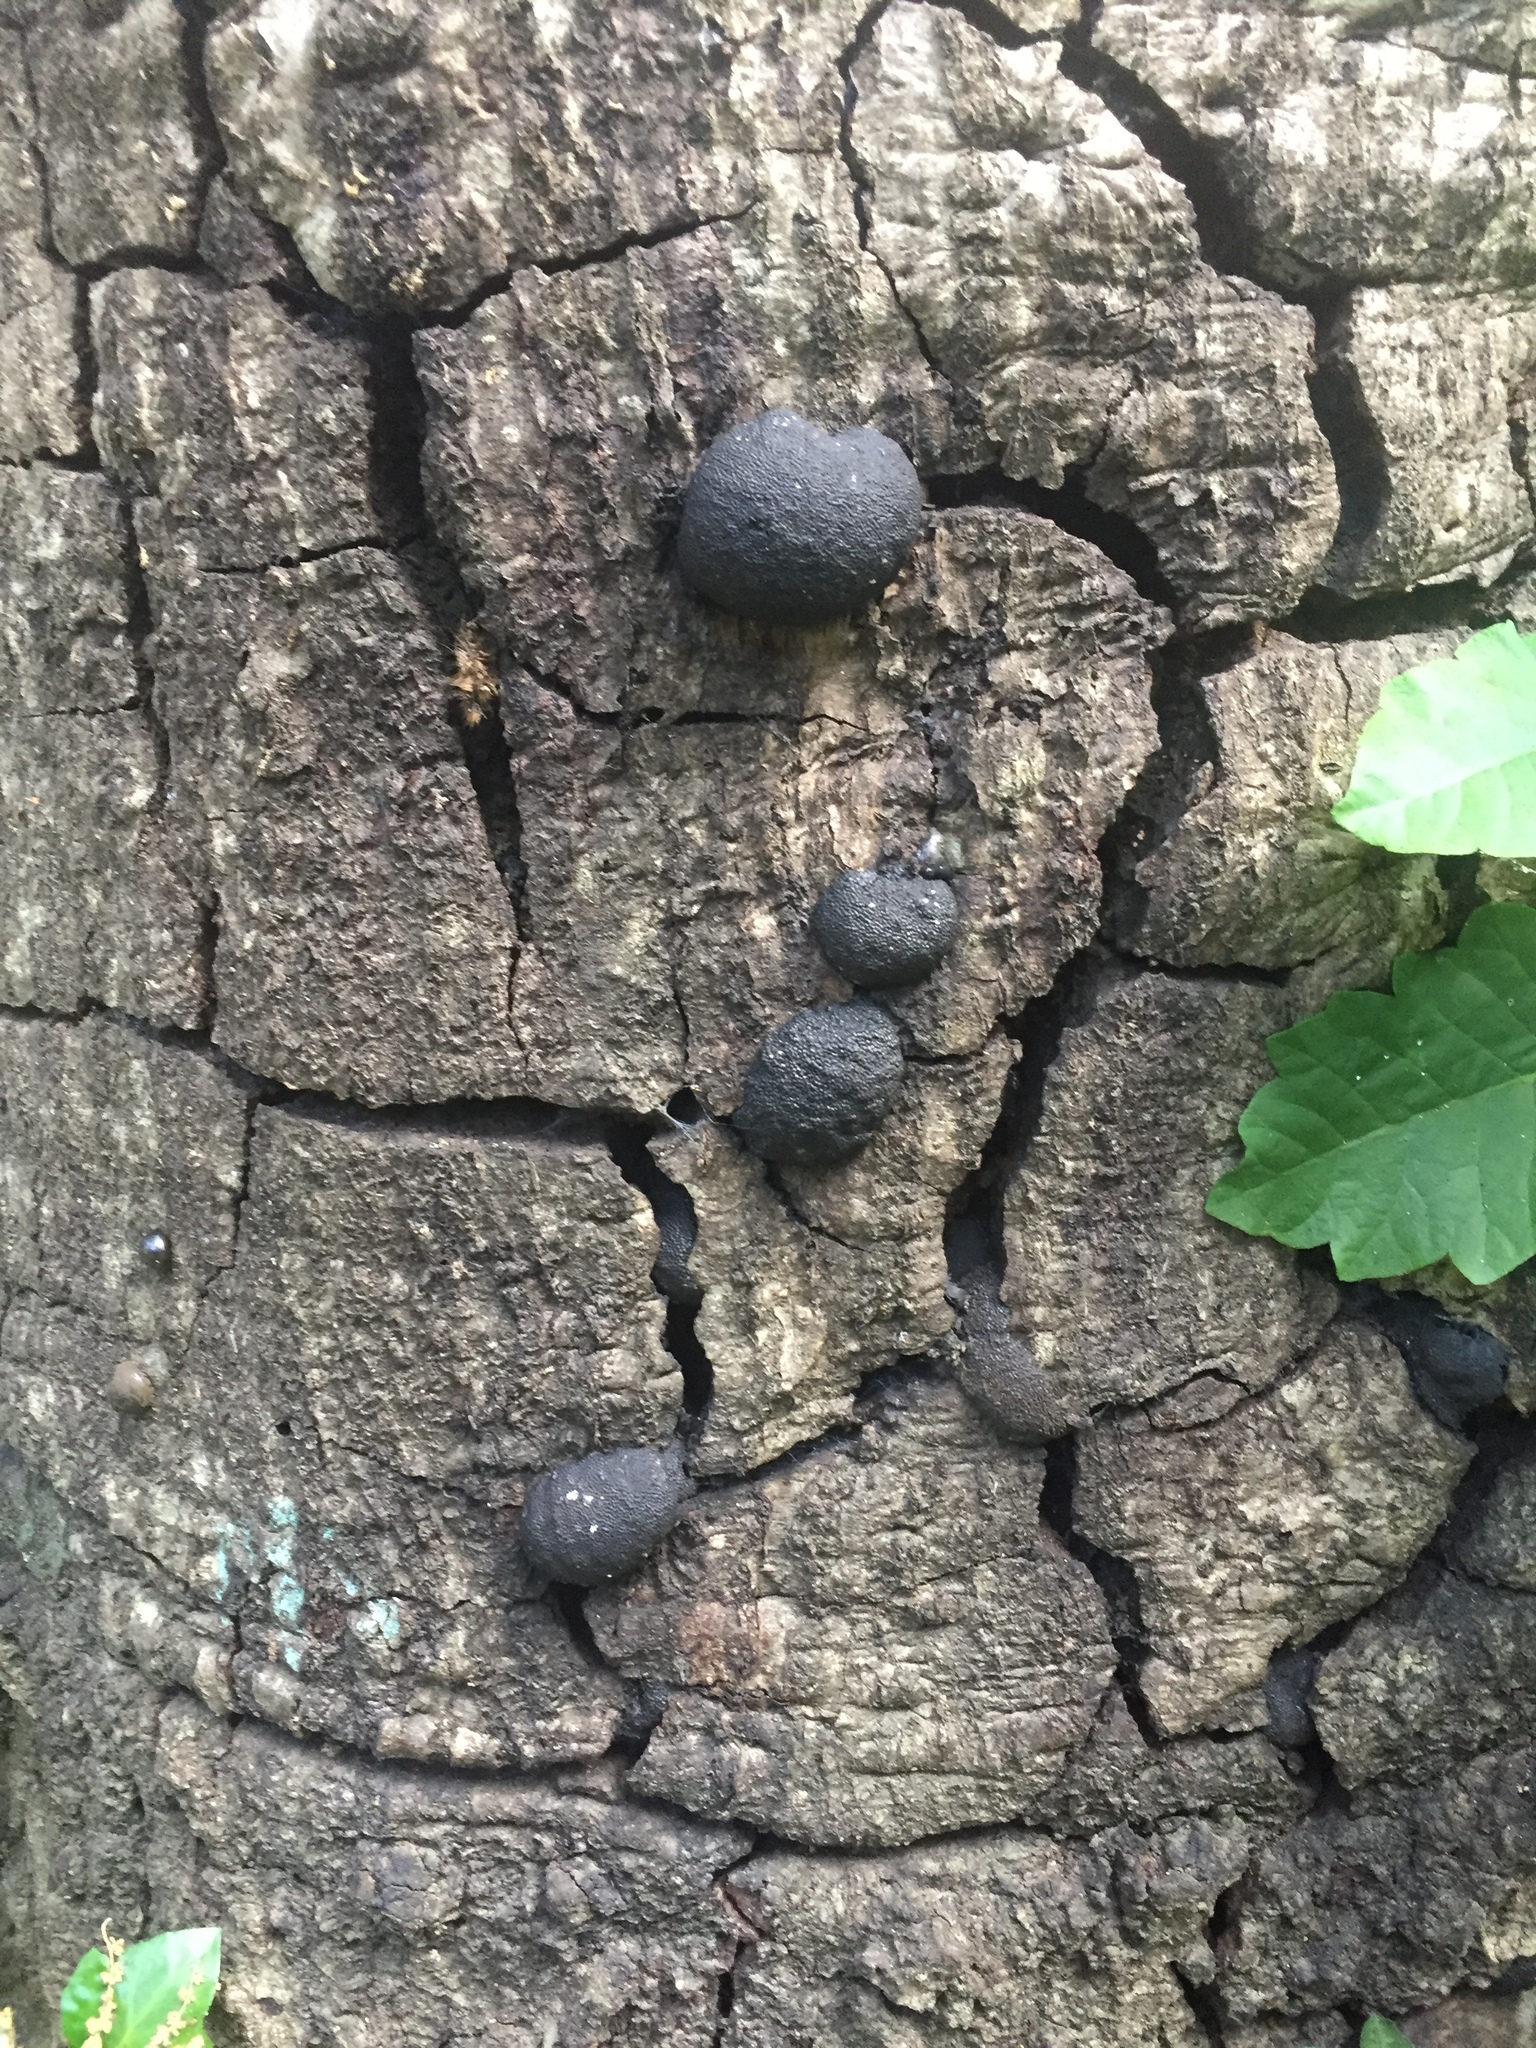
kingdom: Fungi
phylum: Ascomycota
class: Sordariomycetes
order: Xylariales
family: Hypoxylaceae
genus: Annulohypoxylon
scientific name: Annulohypoxylon thouarsianum
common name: Cramp balls
